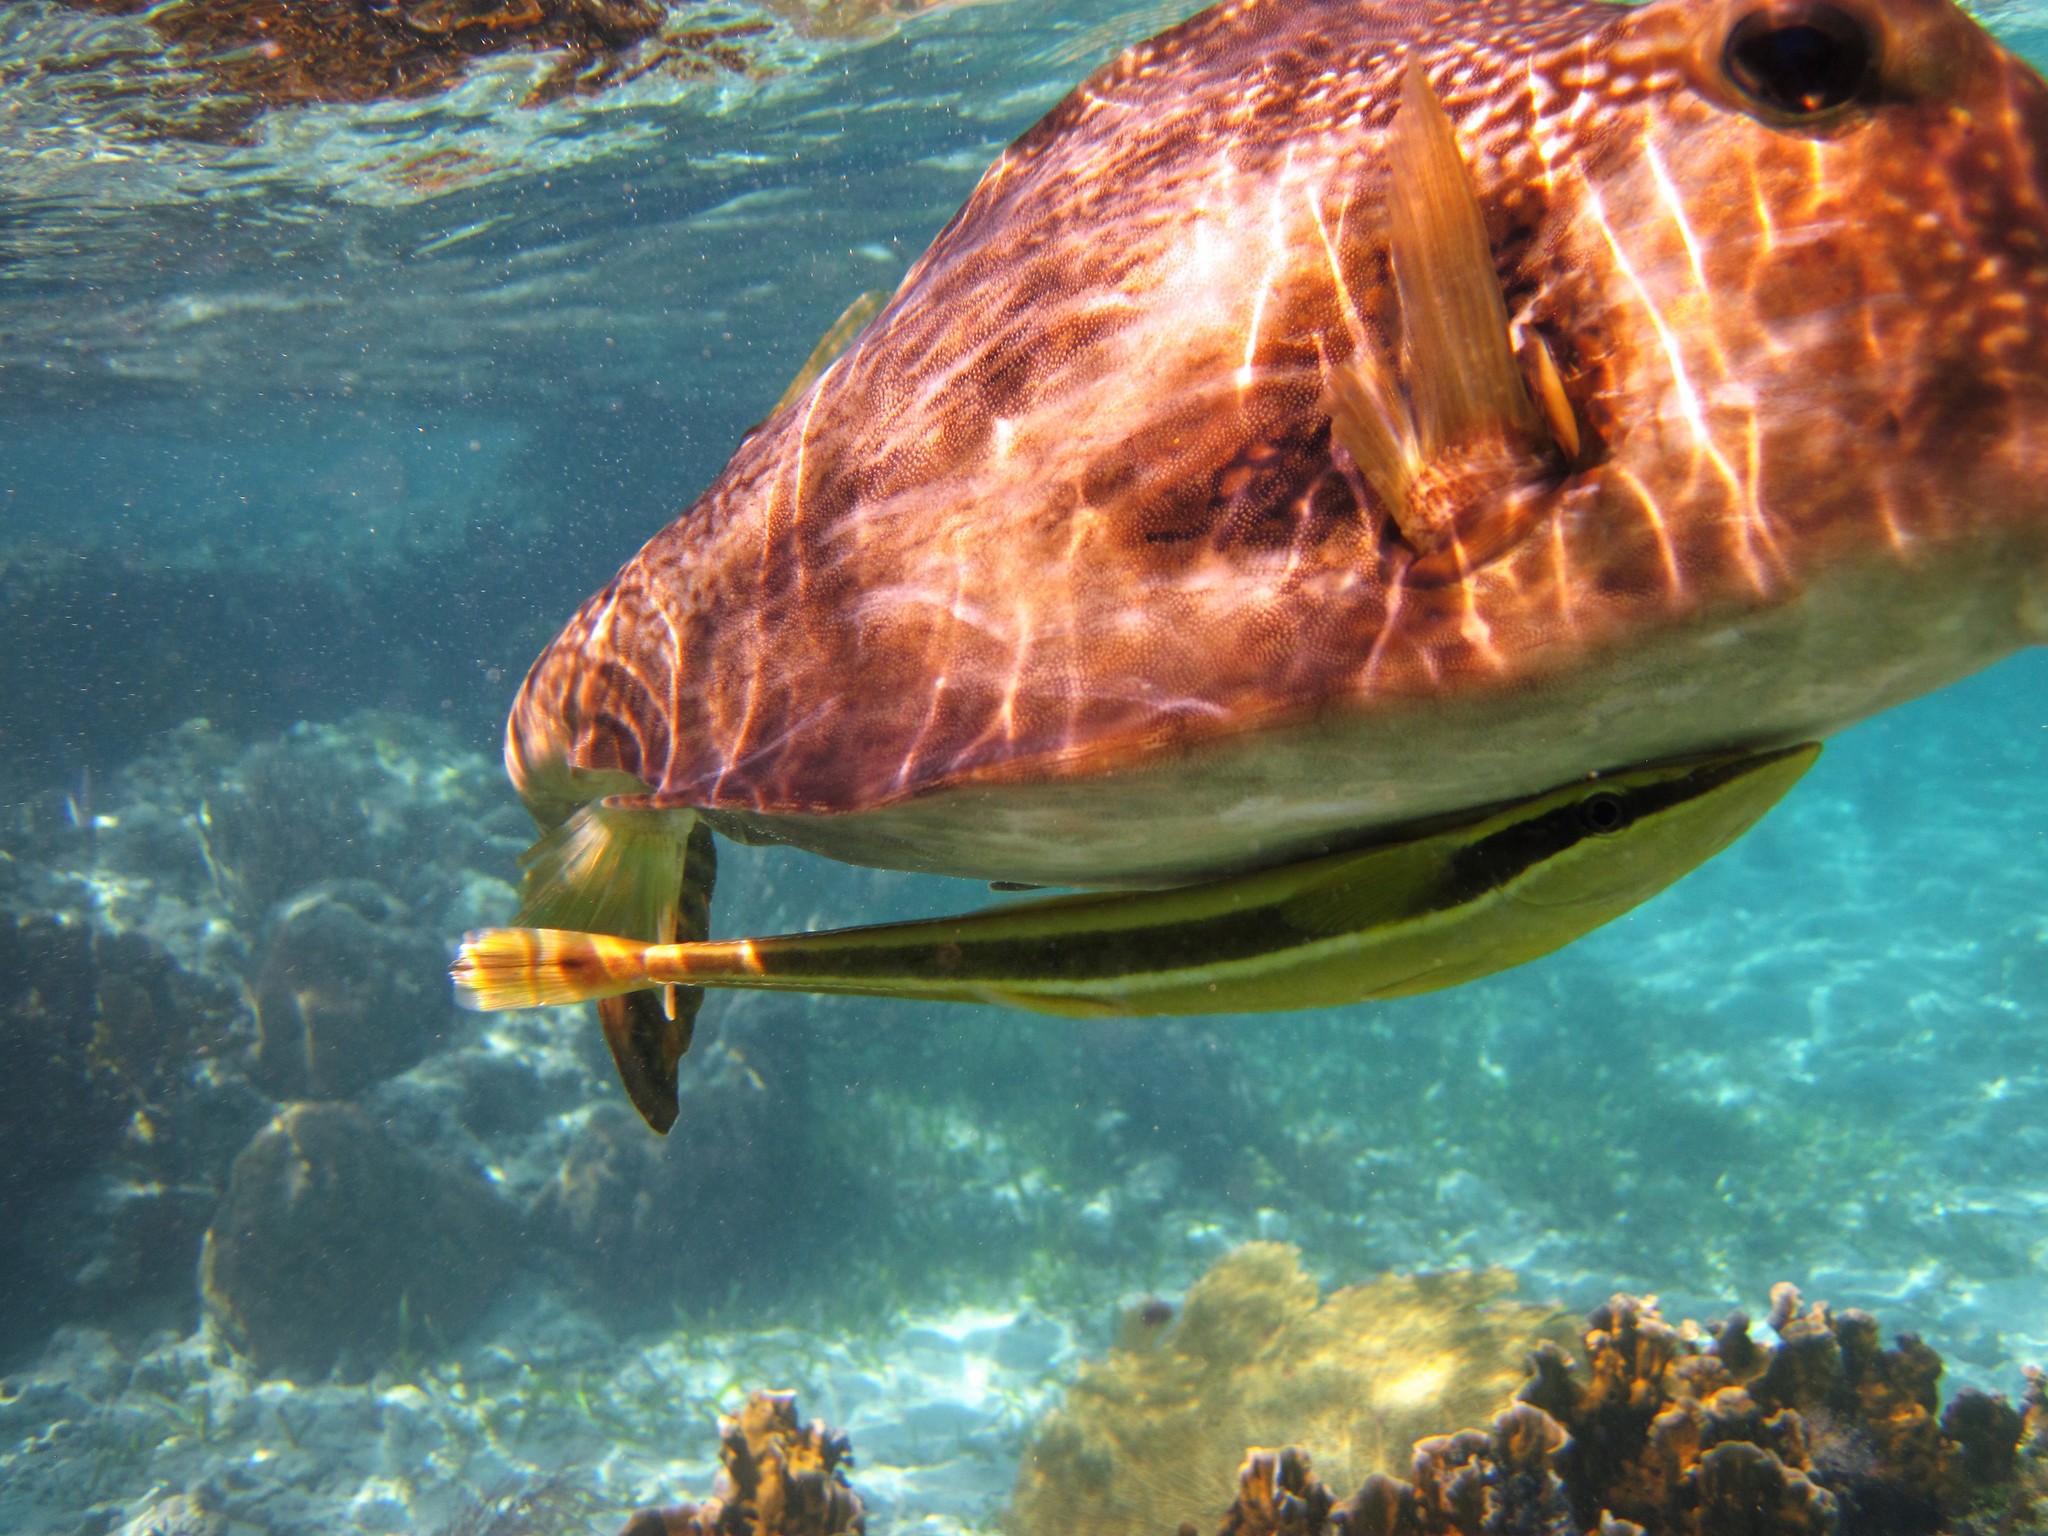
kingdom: Animalia
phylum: Chordata
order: Perciformes
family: Echeneidae
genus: Echeneis
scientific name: Echeneis neucratoides
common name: Whitefin sharksucker
